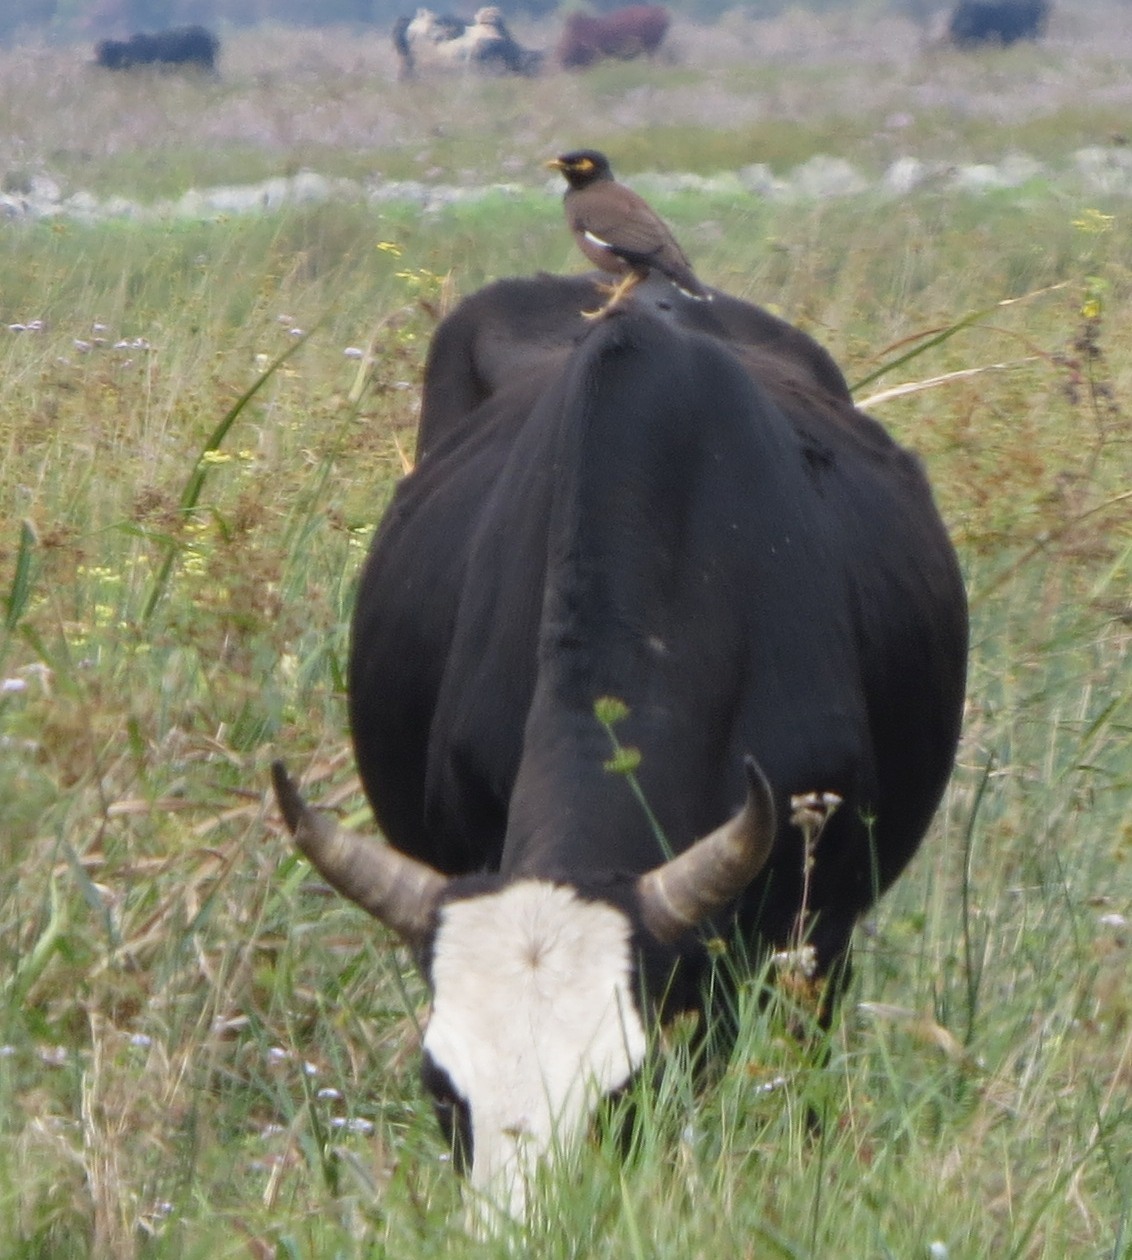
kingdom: Animalia
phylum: Chordata
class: Aves
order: Passeriformes
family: Sturnidae
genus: Acridotheres
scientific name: Acridotheres tristis
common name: Common myna
